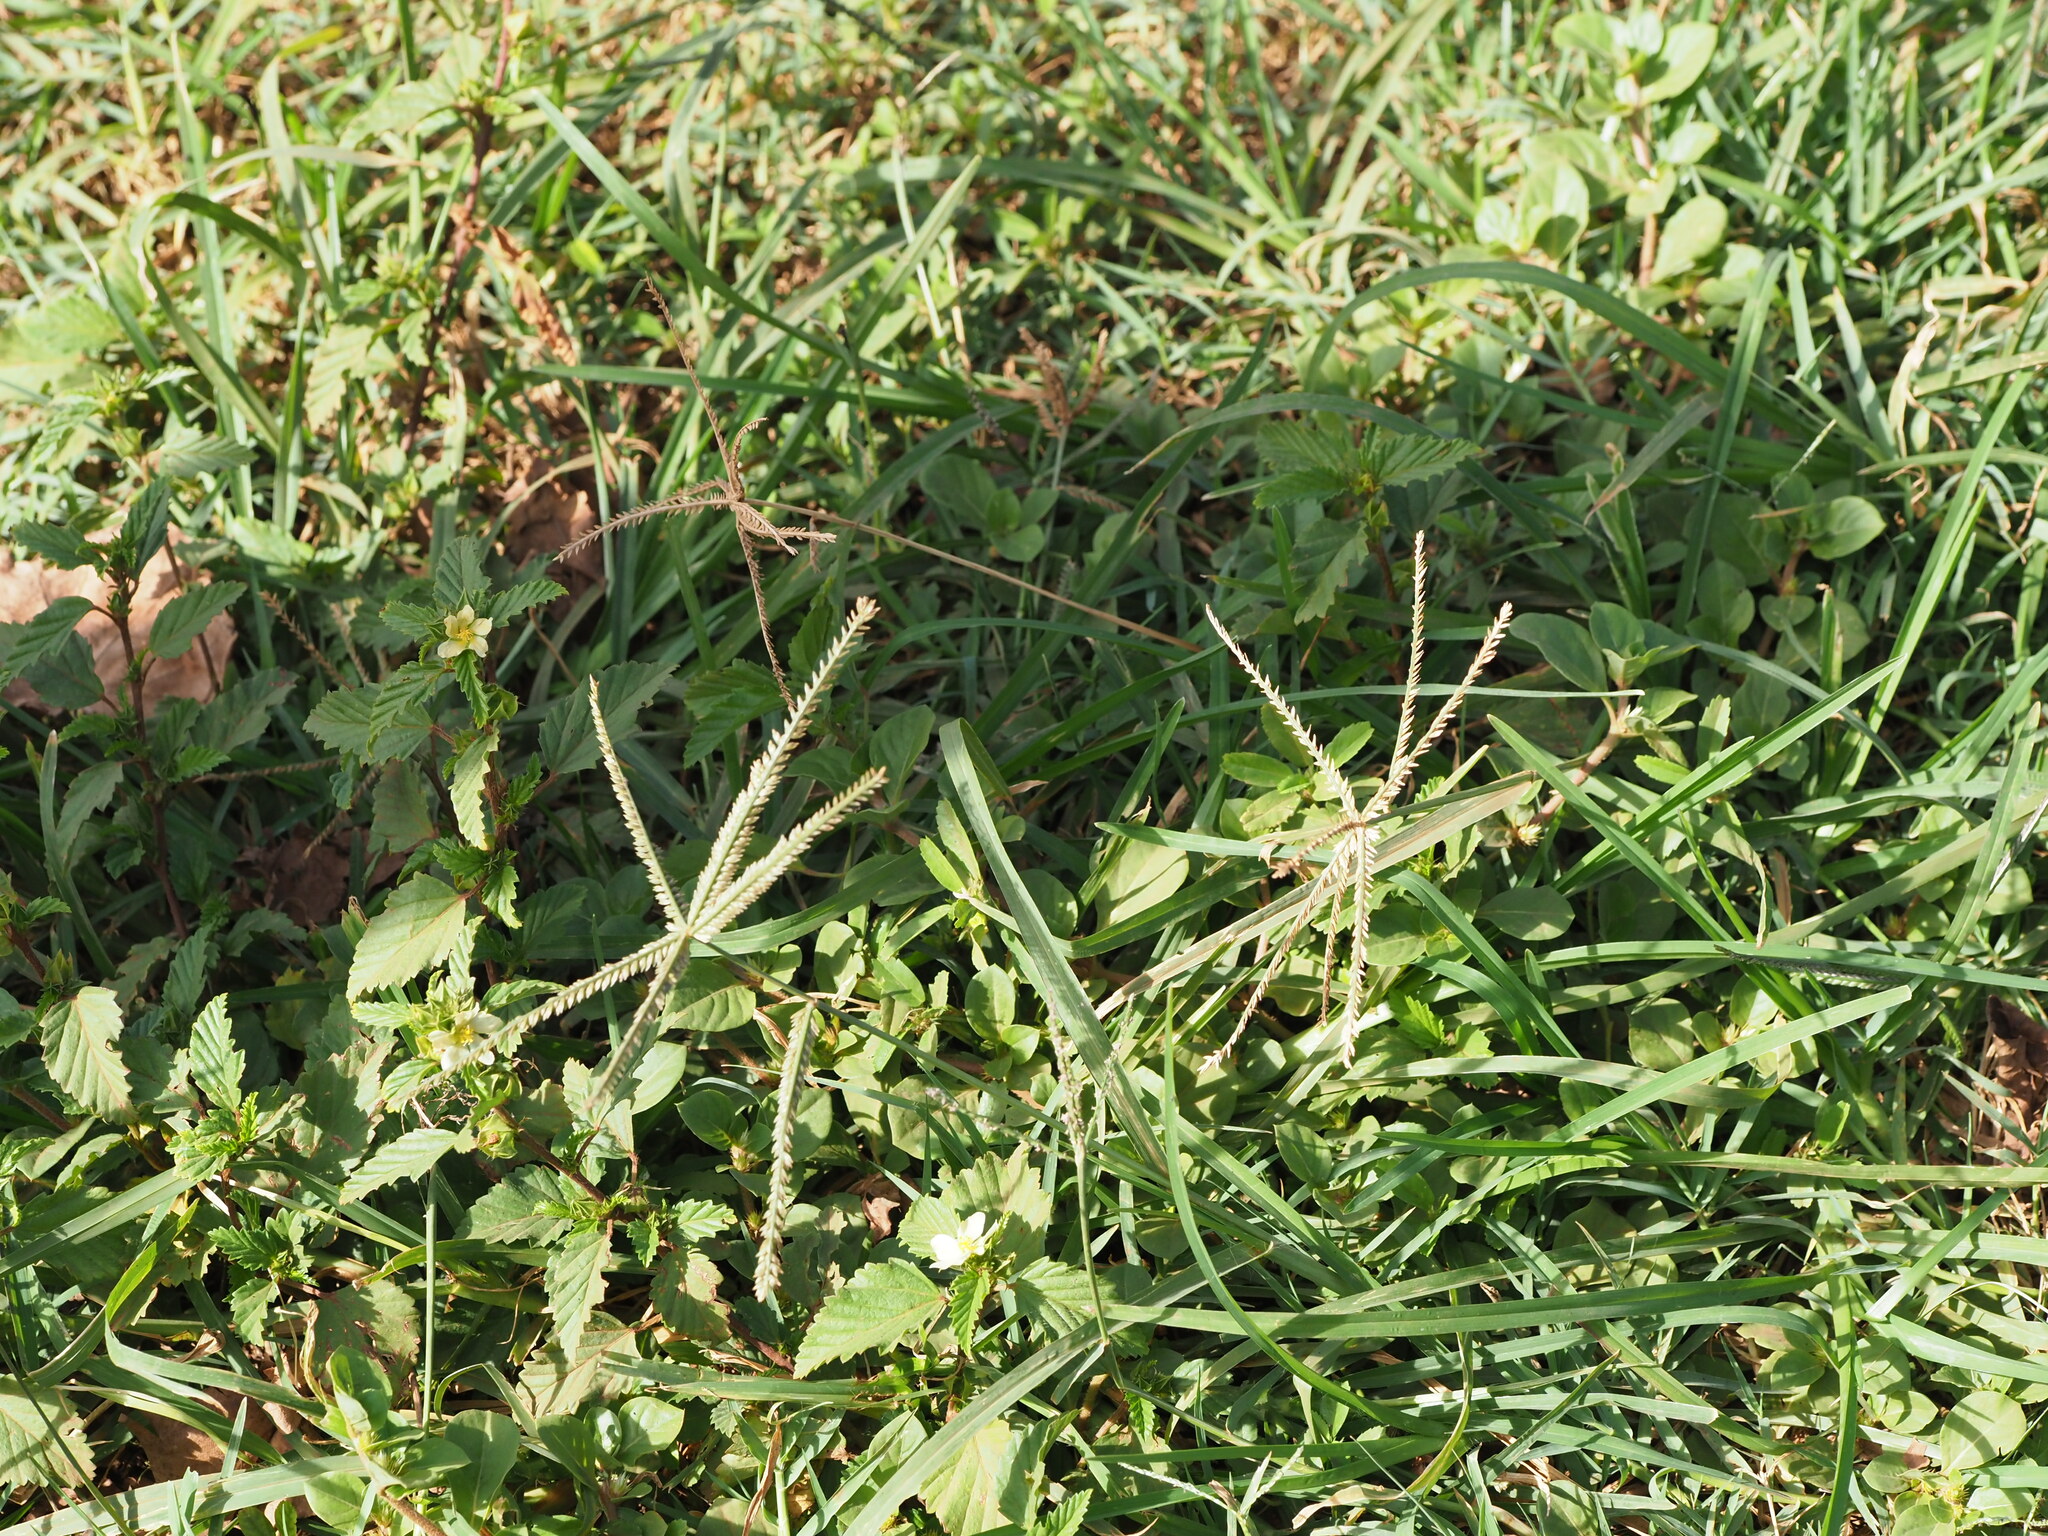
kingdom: Plantae
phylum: Tracheophyta
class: Liliopsida
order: Poales
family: Poaceae
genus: Eleusine
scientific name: Eleusine indica
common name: Yard-grass
